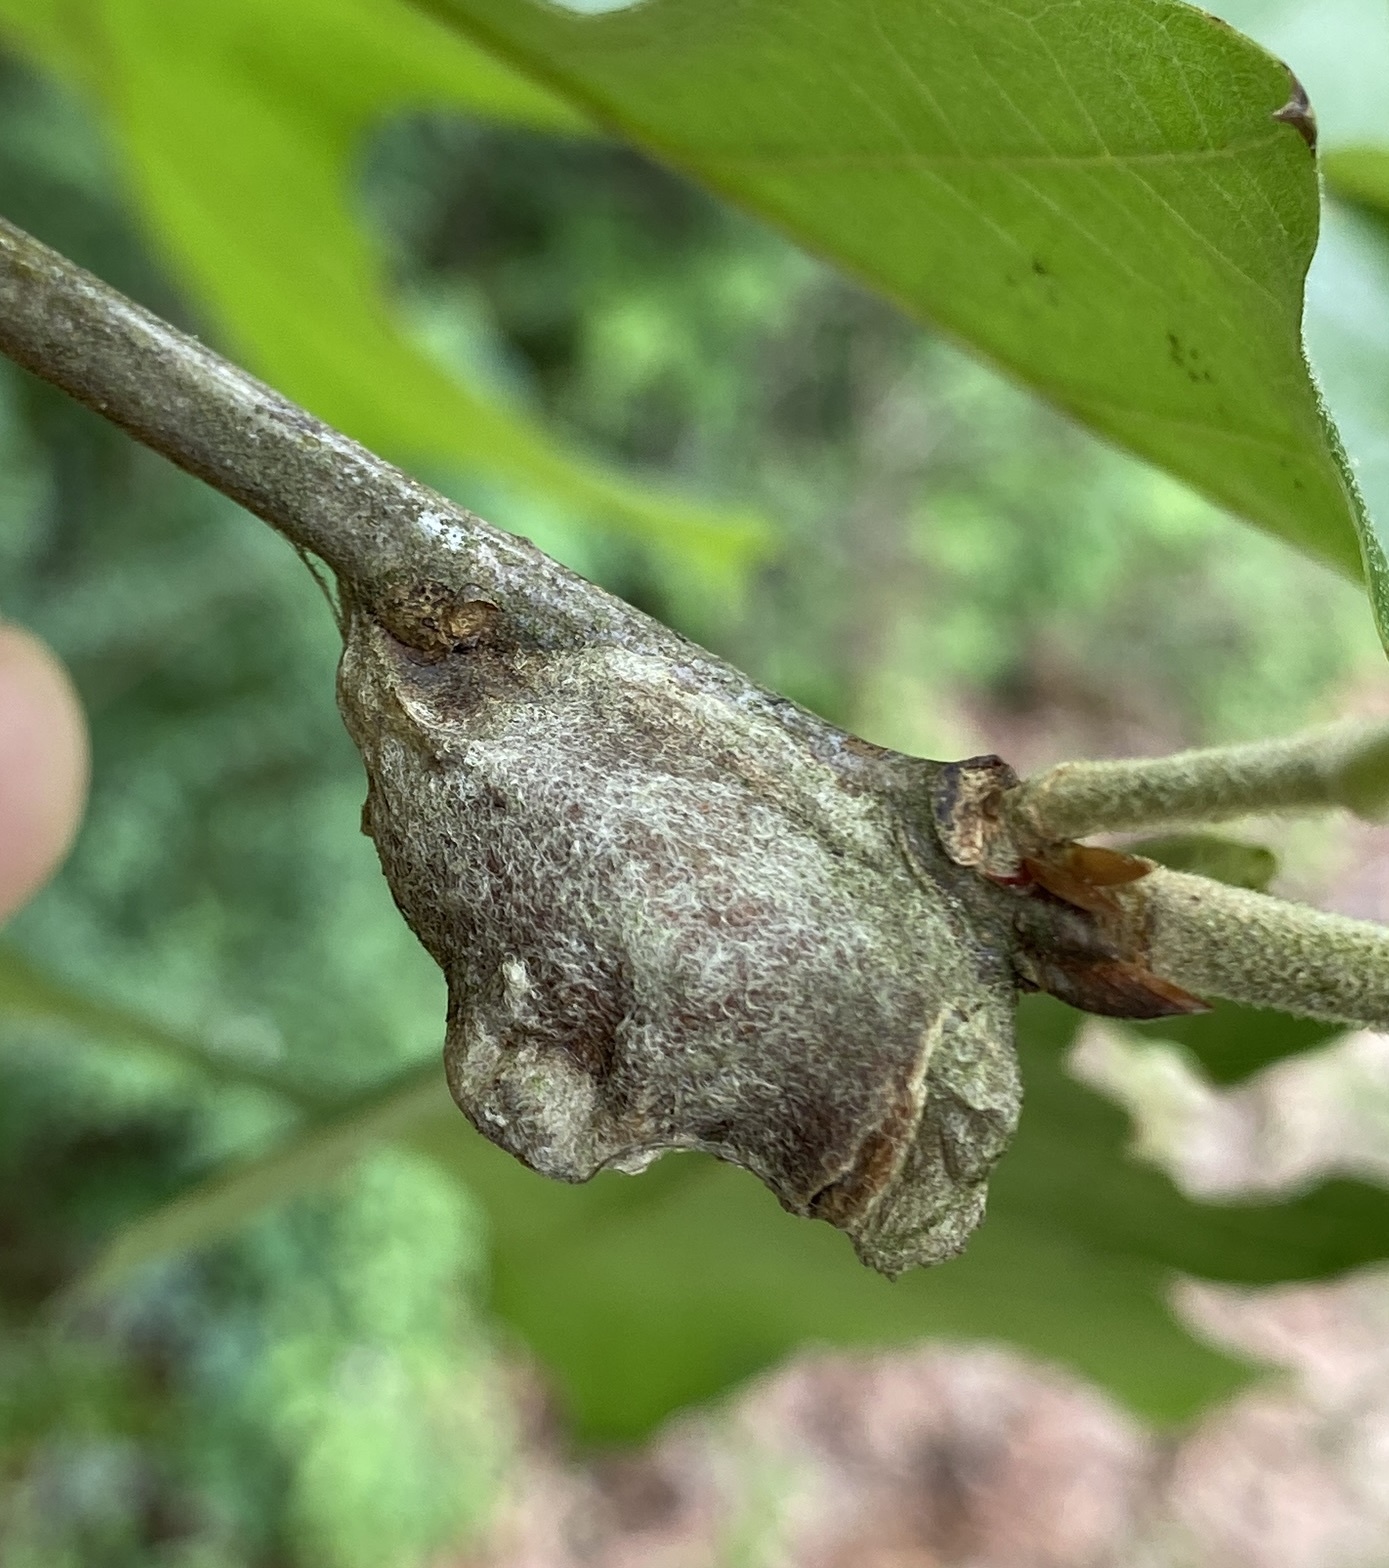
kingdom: Animalia
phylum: Arthropoda
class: Insecta
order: Lepidoptera
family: Megalopygidae
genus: Megalopyge
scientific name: Megalopyge
